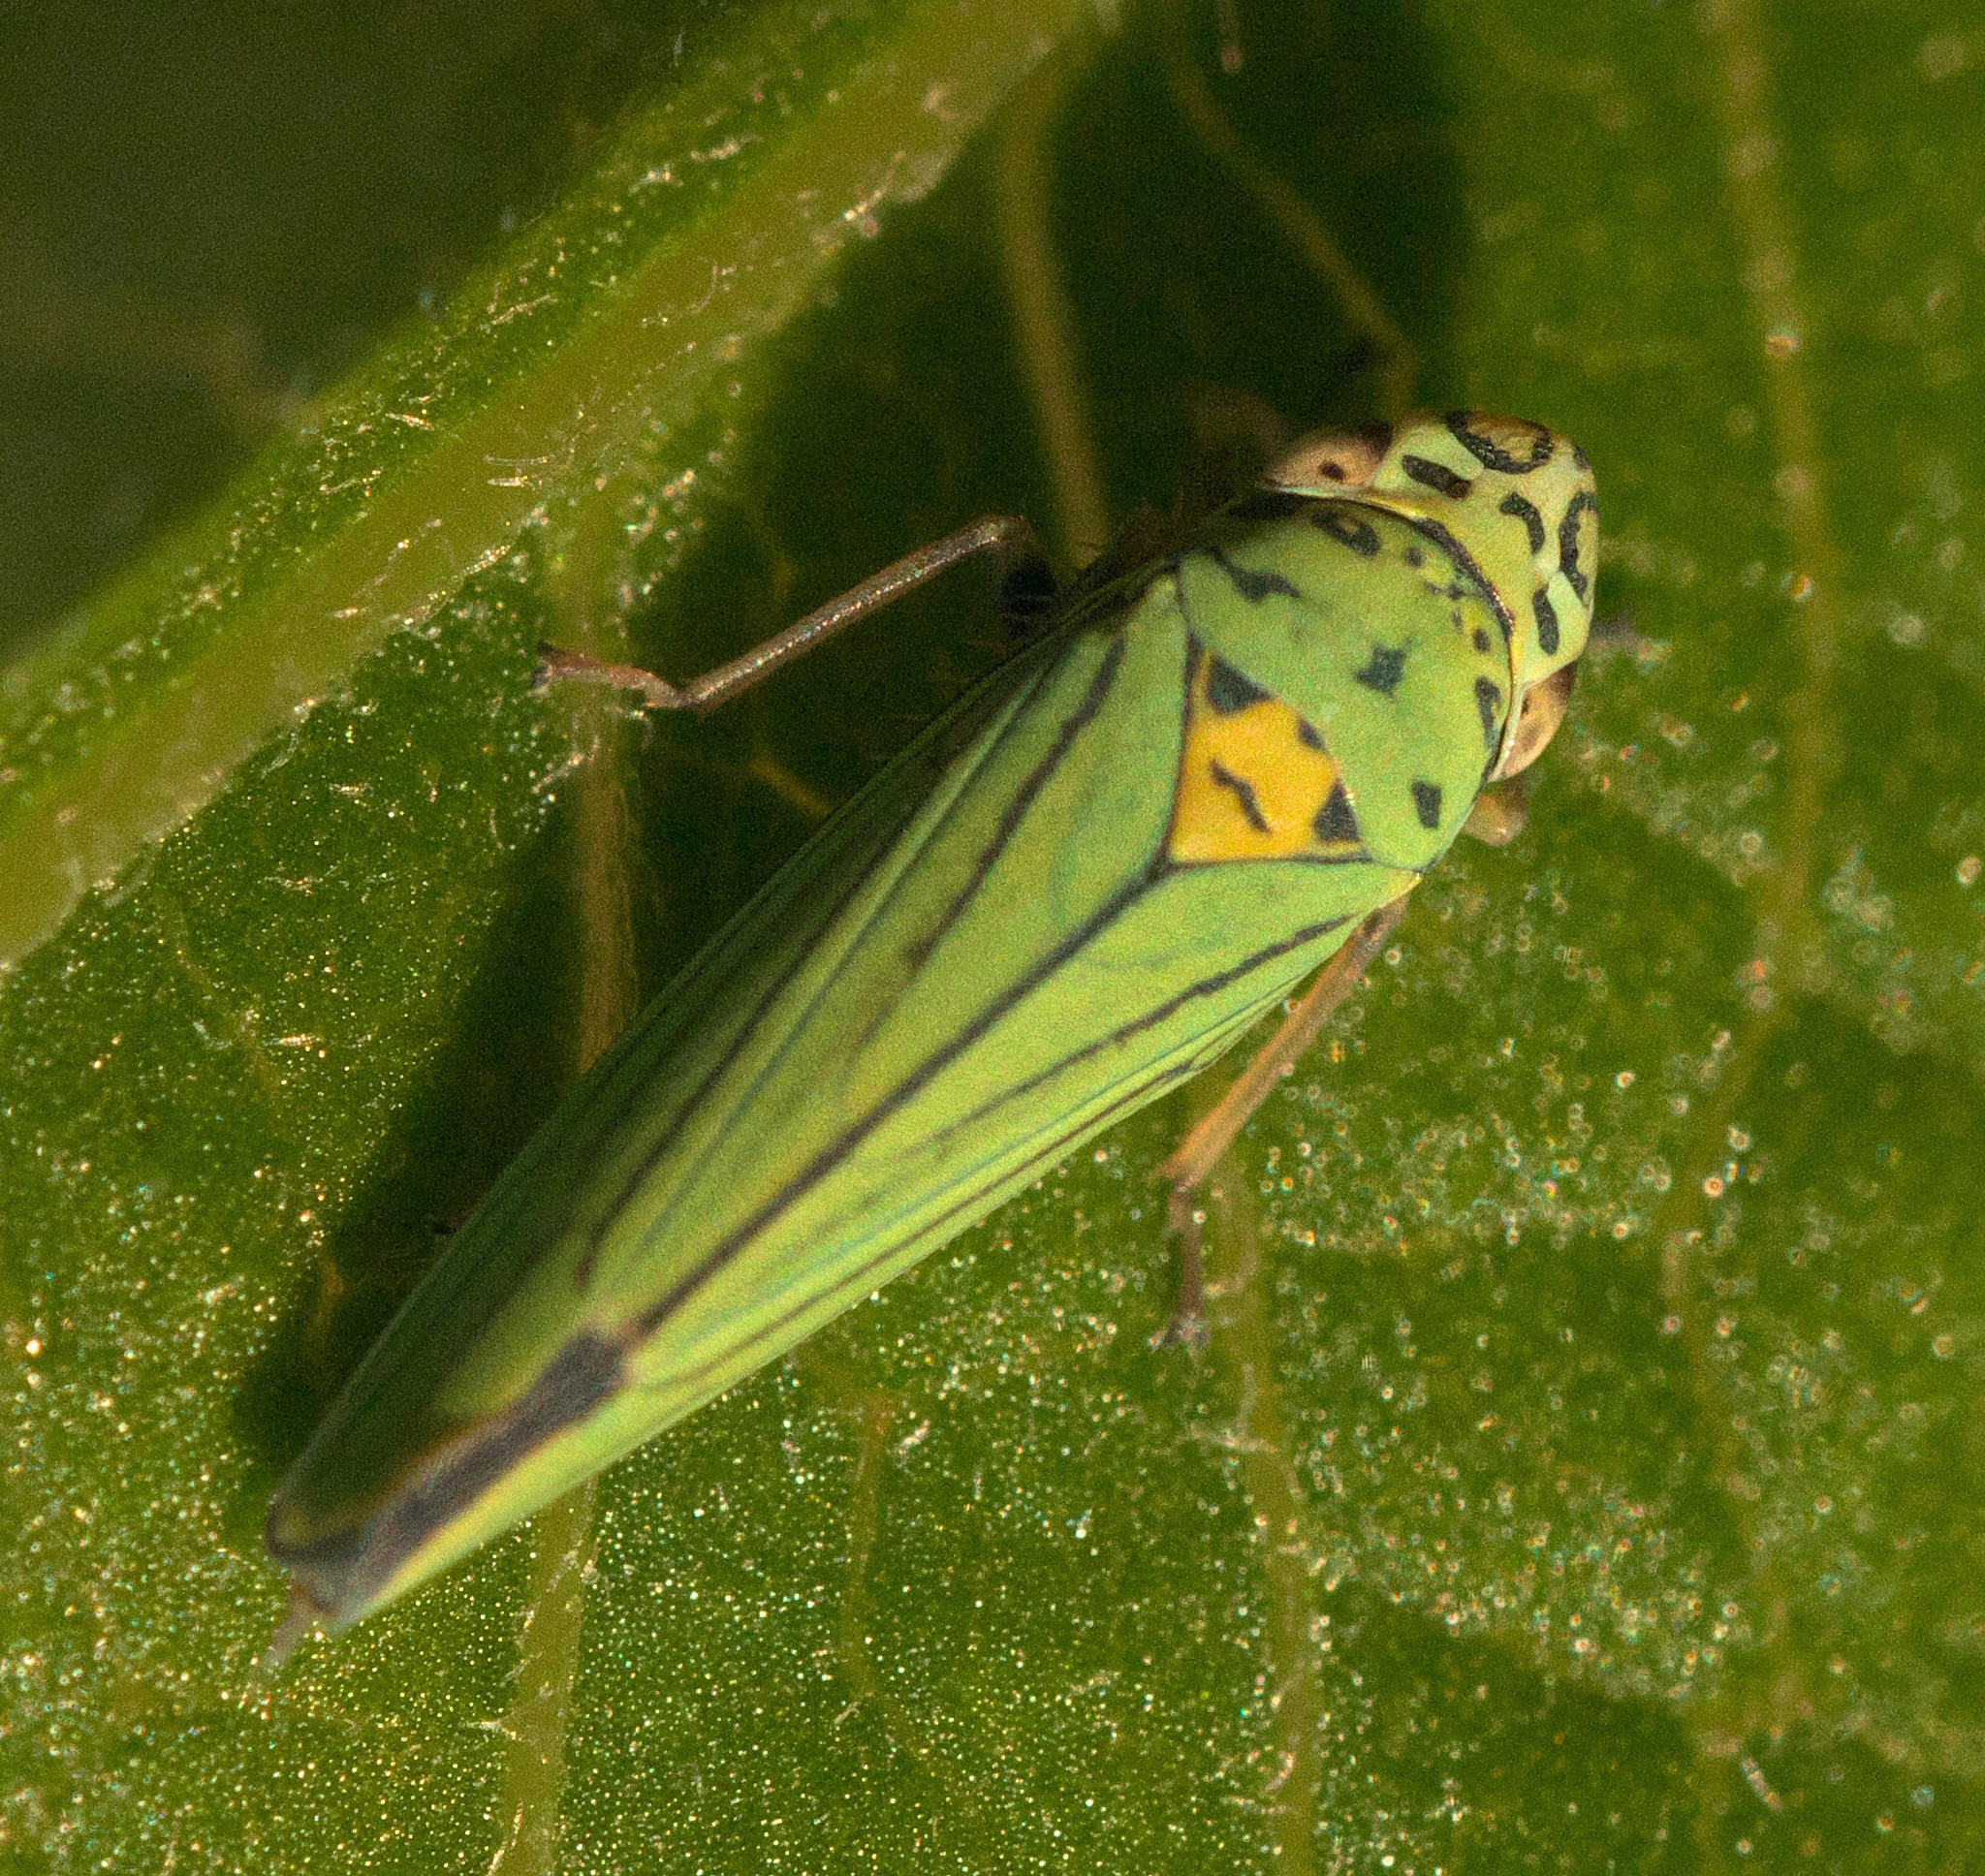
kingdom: Animalia
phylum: Arthropoda
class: Insecta
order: Hemiptera
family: Cicadellidae
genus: Graphocephala
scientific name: Graphocephala atropunctata
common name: Blue-green sharpshooter
